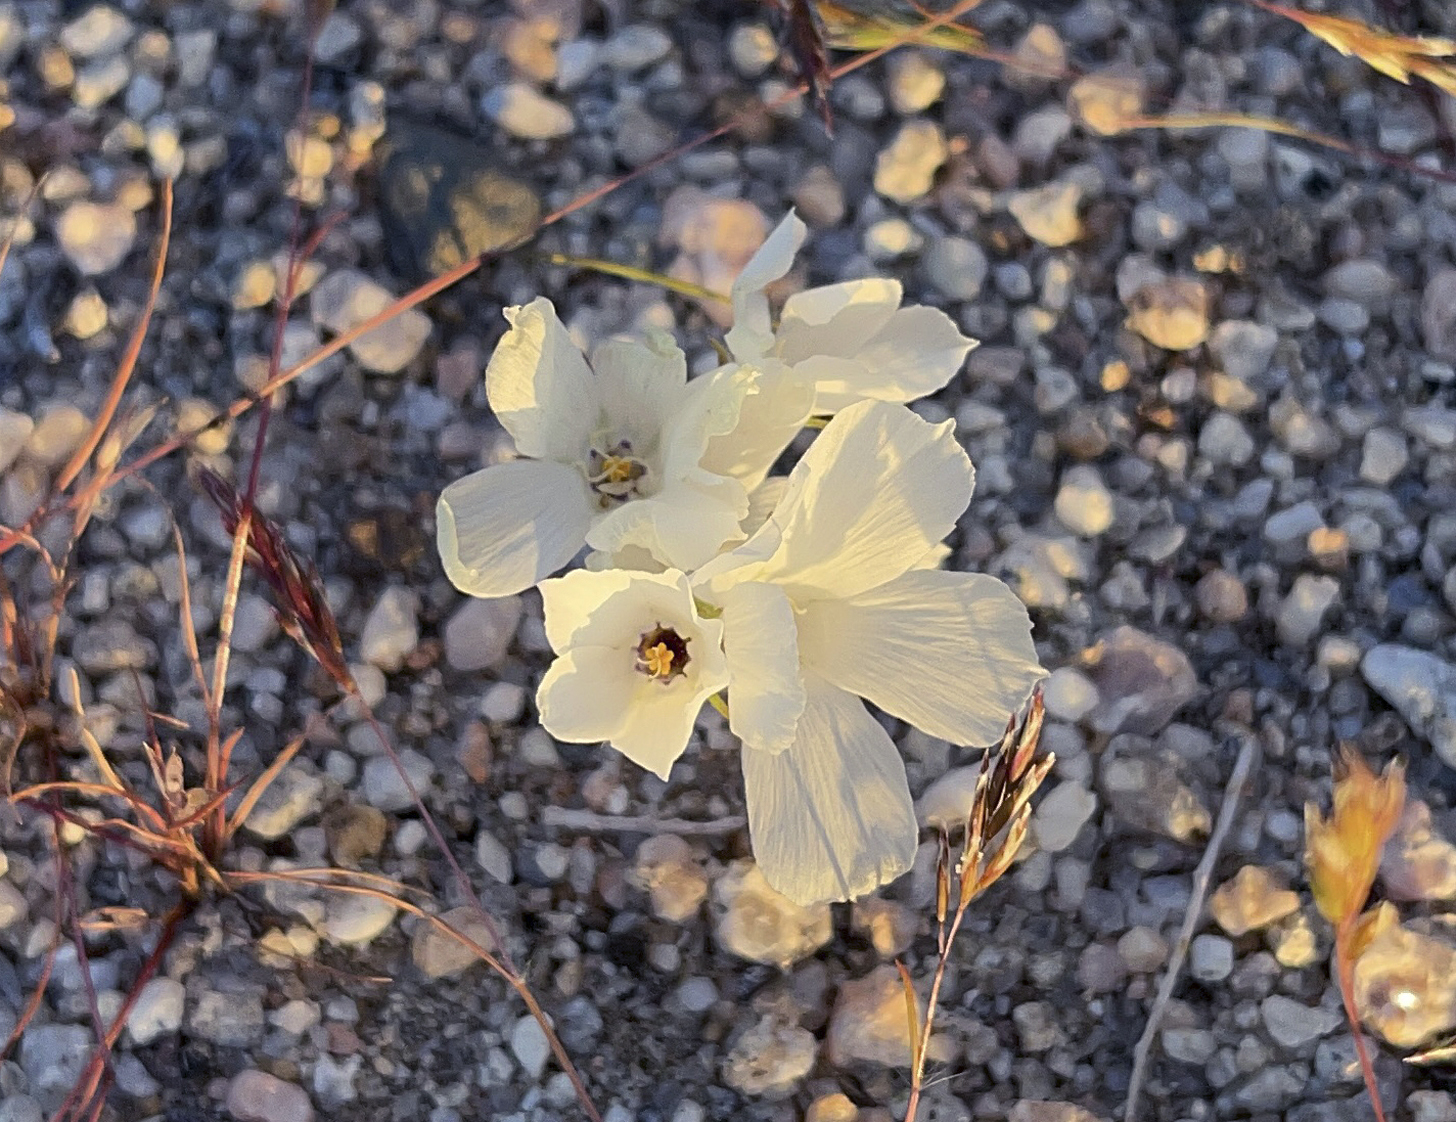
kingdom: Plantae
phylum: Tracheophyta
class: Magnoliopsida
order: Ericales
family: Polemoniaceae
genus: Linanthus
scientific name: Linanthus parryae
